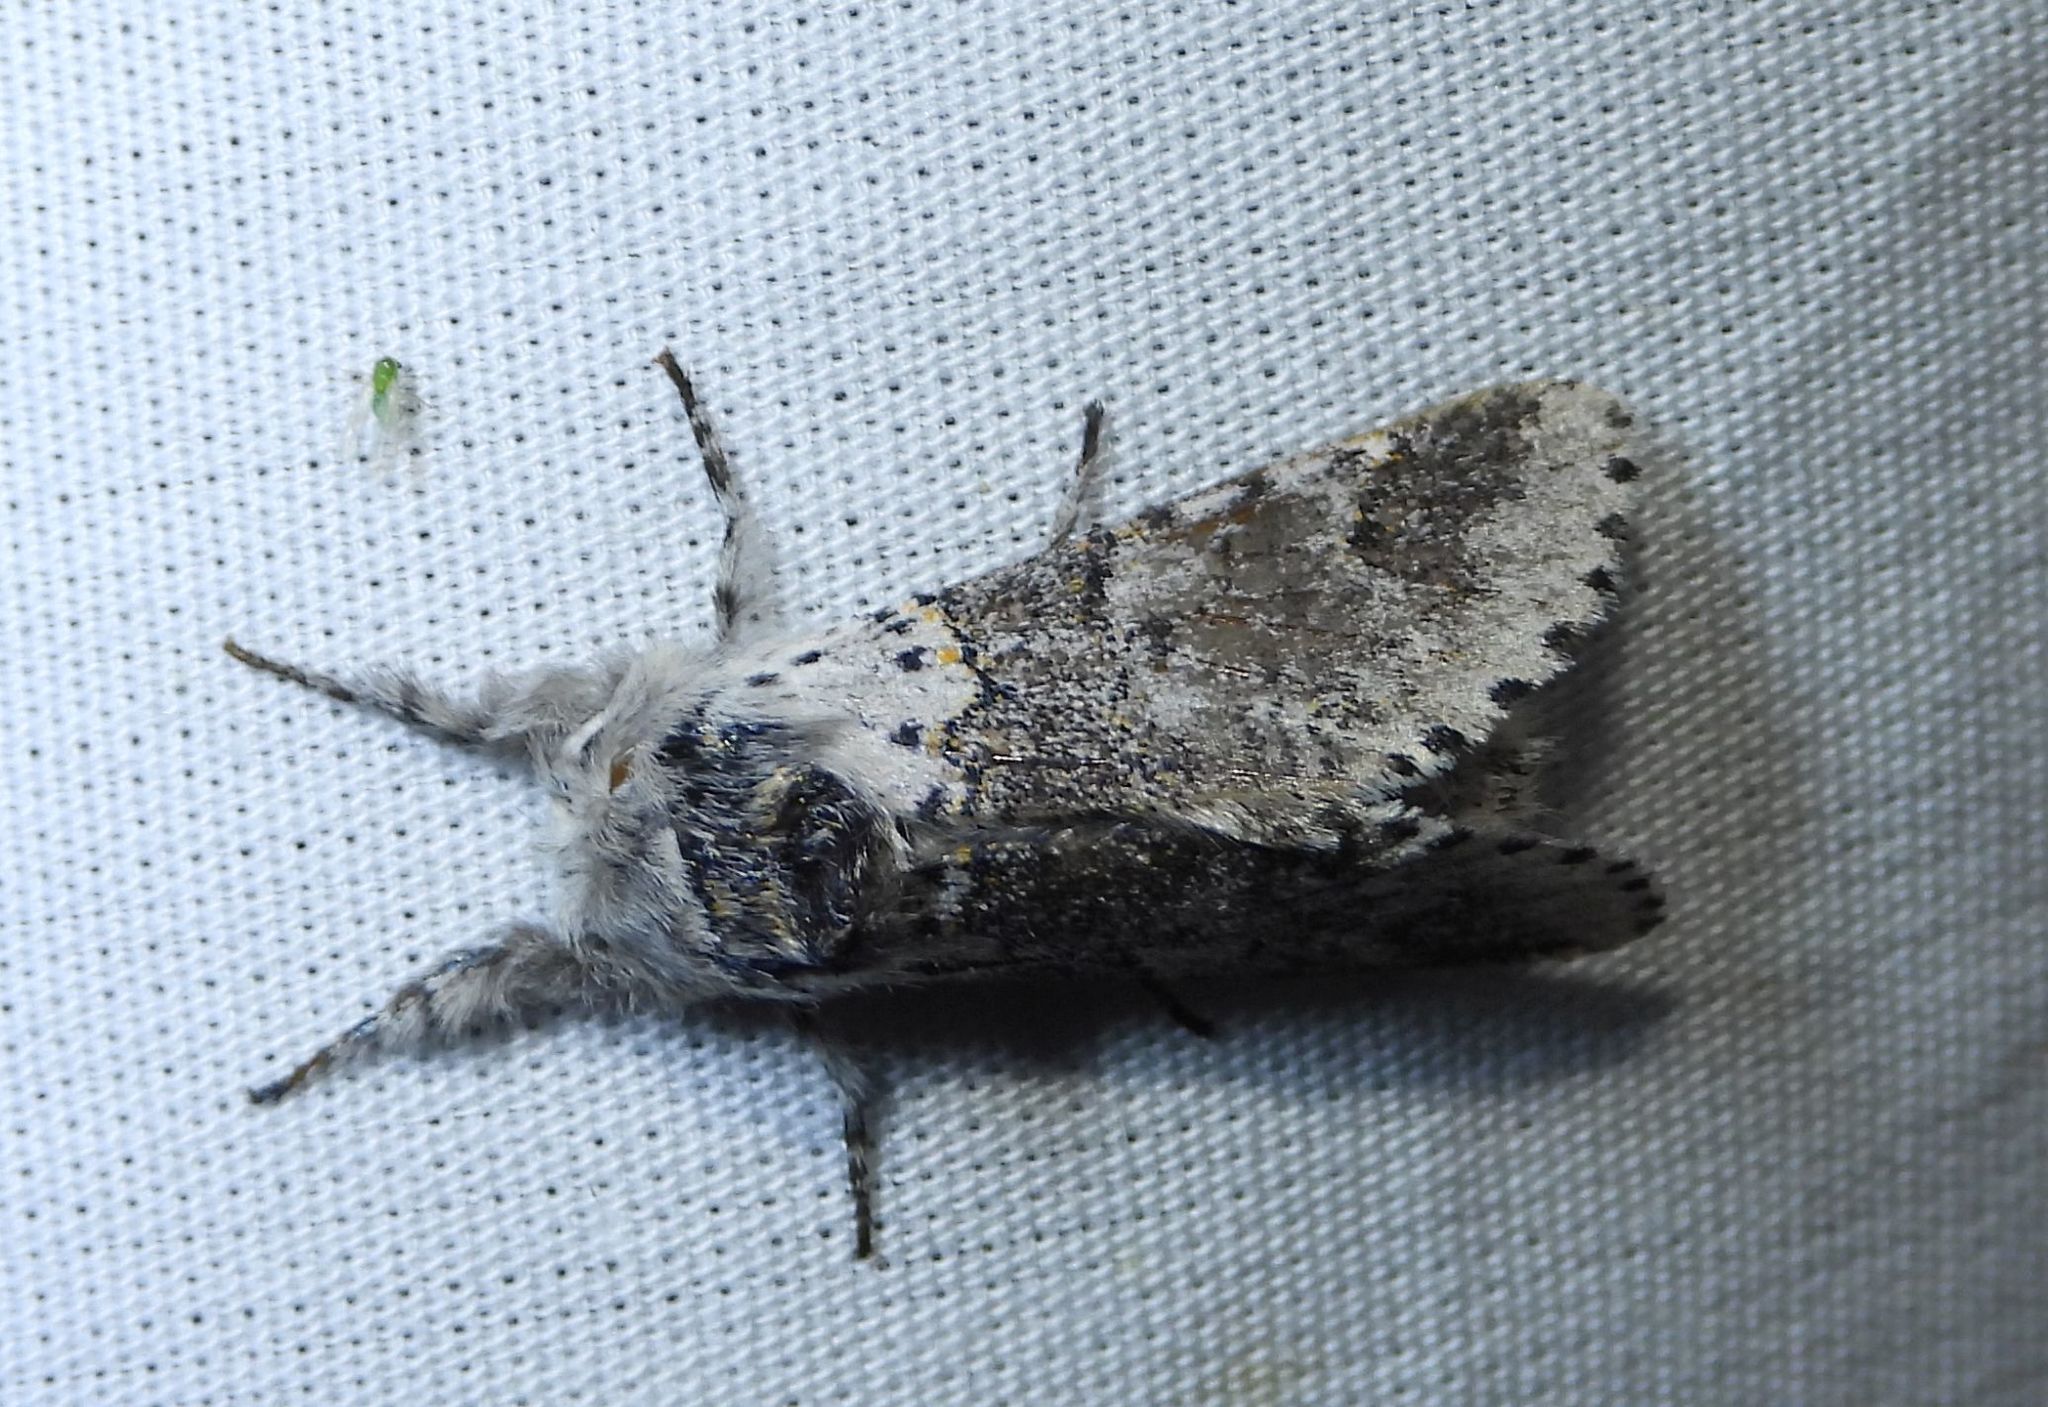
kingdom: Animalia
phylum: Arthropoda
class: Insecta
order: Lepidoptera
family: Notodontidae
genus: Furcula
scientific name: Furcula occidentalis
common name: Western furcula moth
